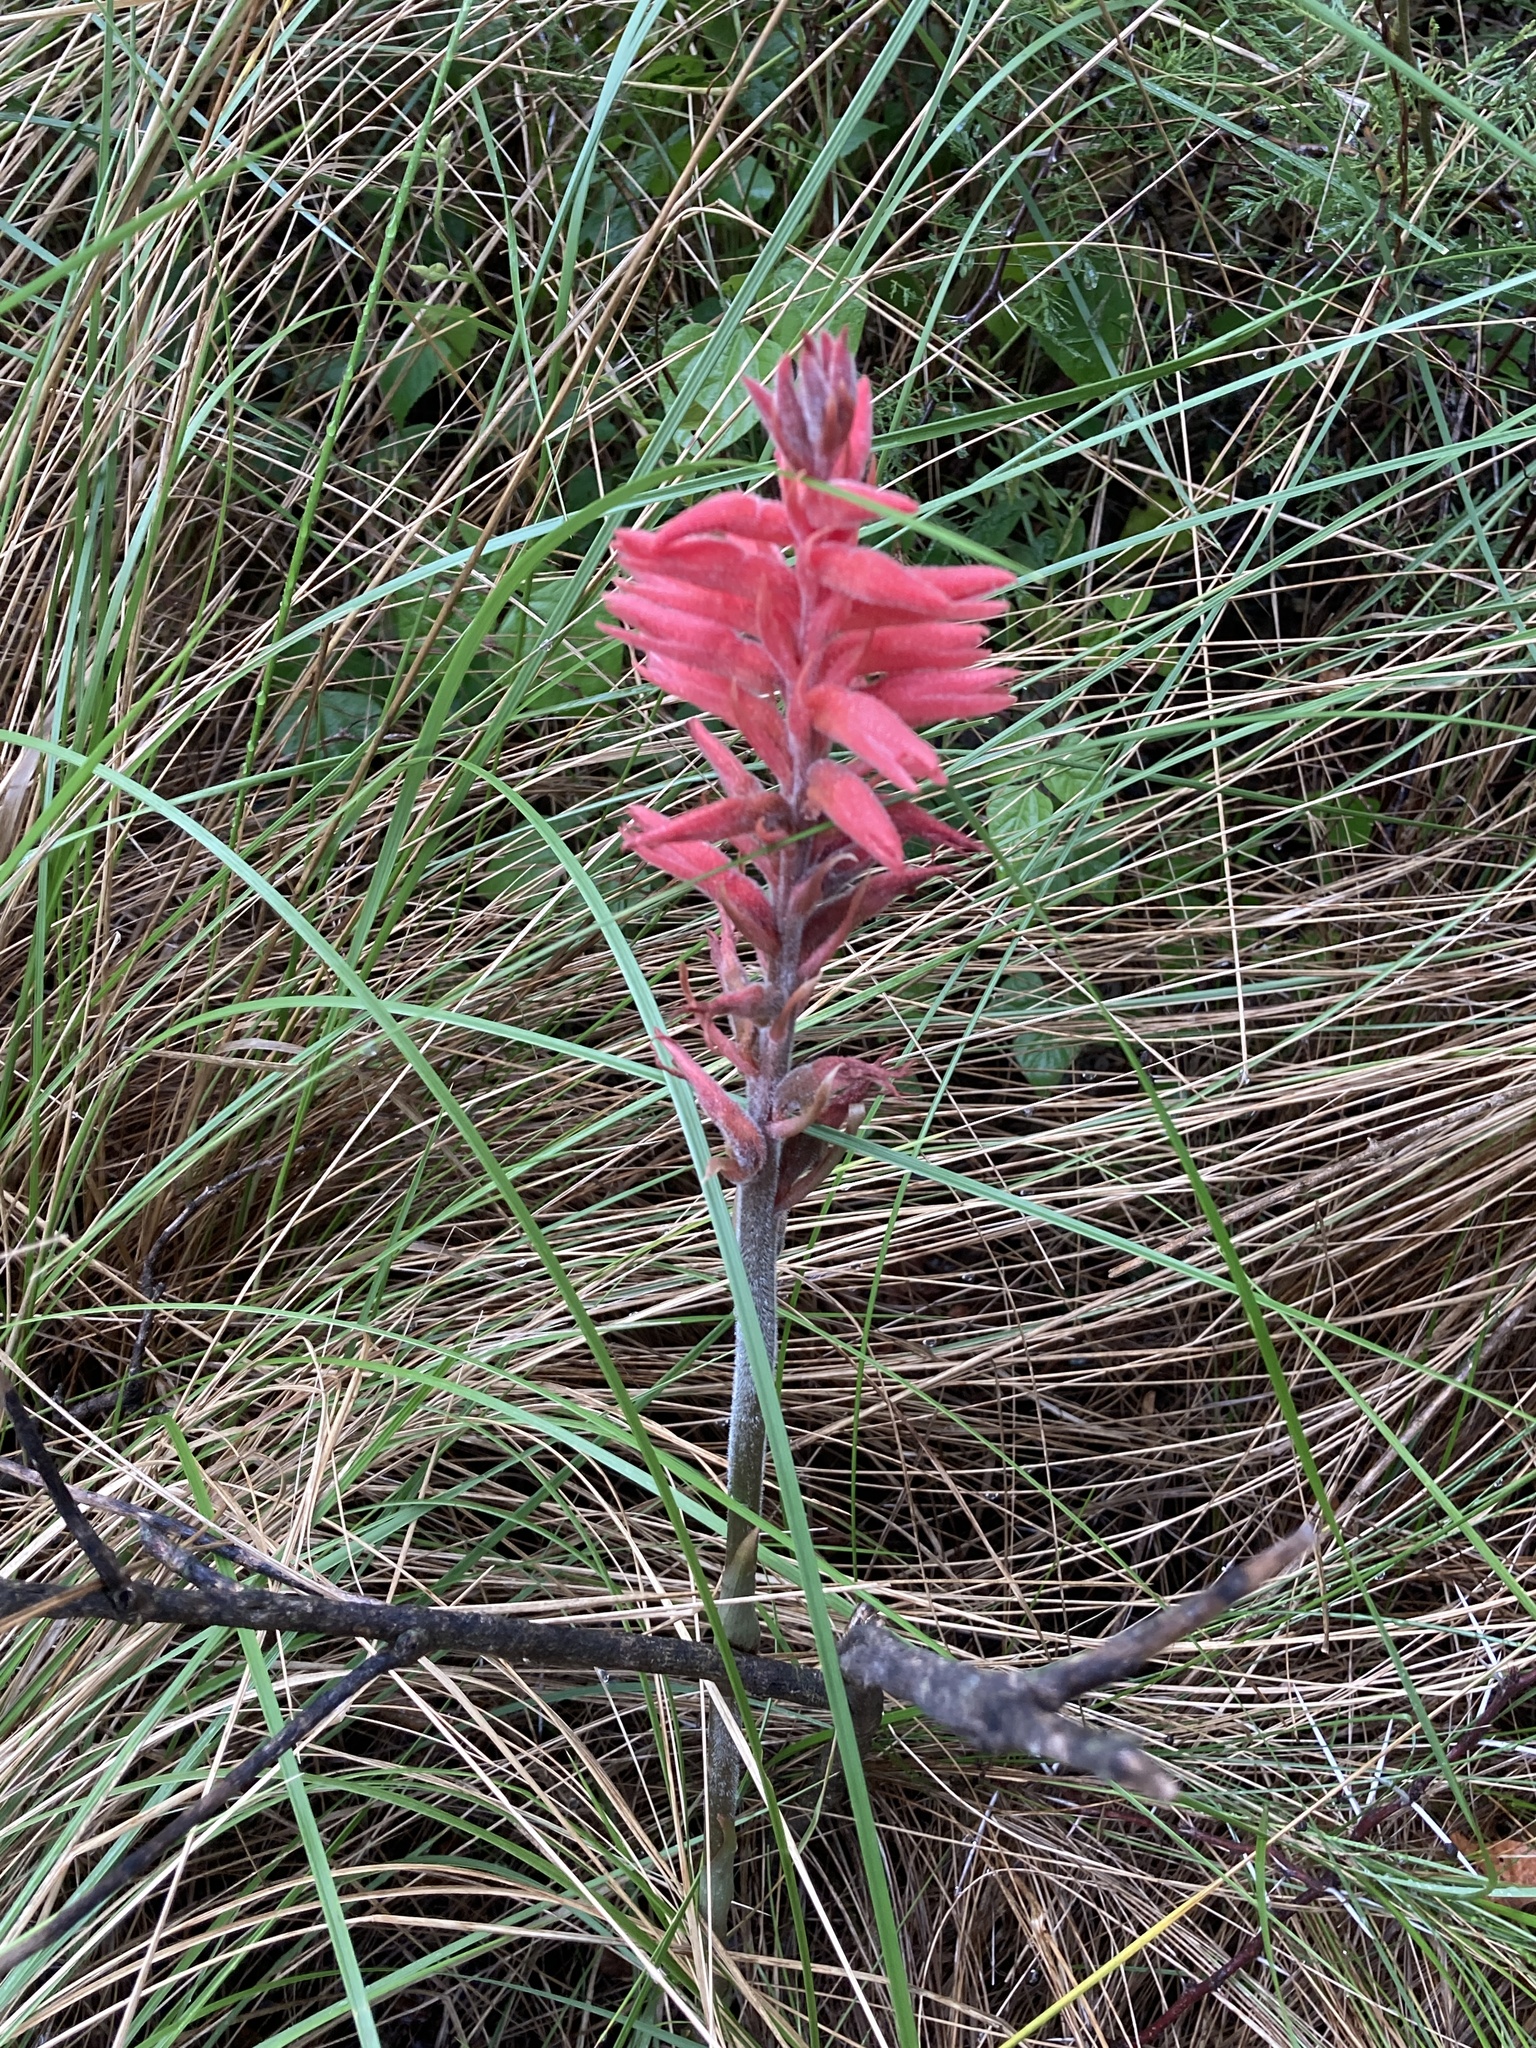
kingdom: Plantae
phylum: Tracheophyta
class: Liliopsida
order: Asparagales
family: Orchidaceae
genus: Sacoila
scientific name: Sacoila lanceolata
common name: Leafless beaked ladiestresses
